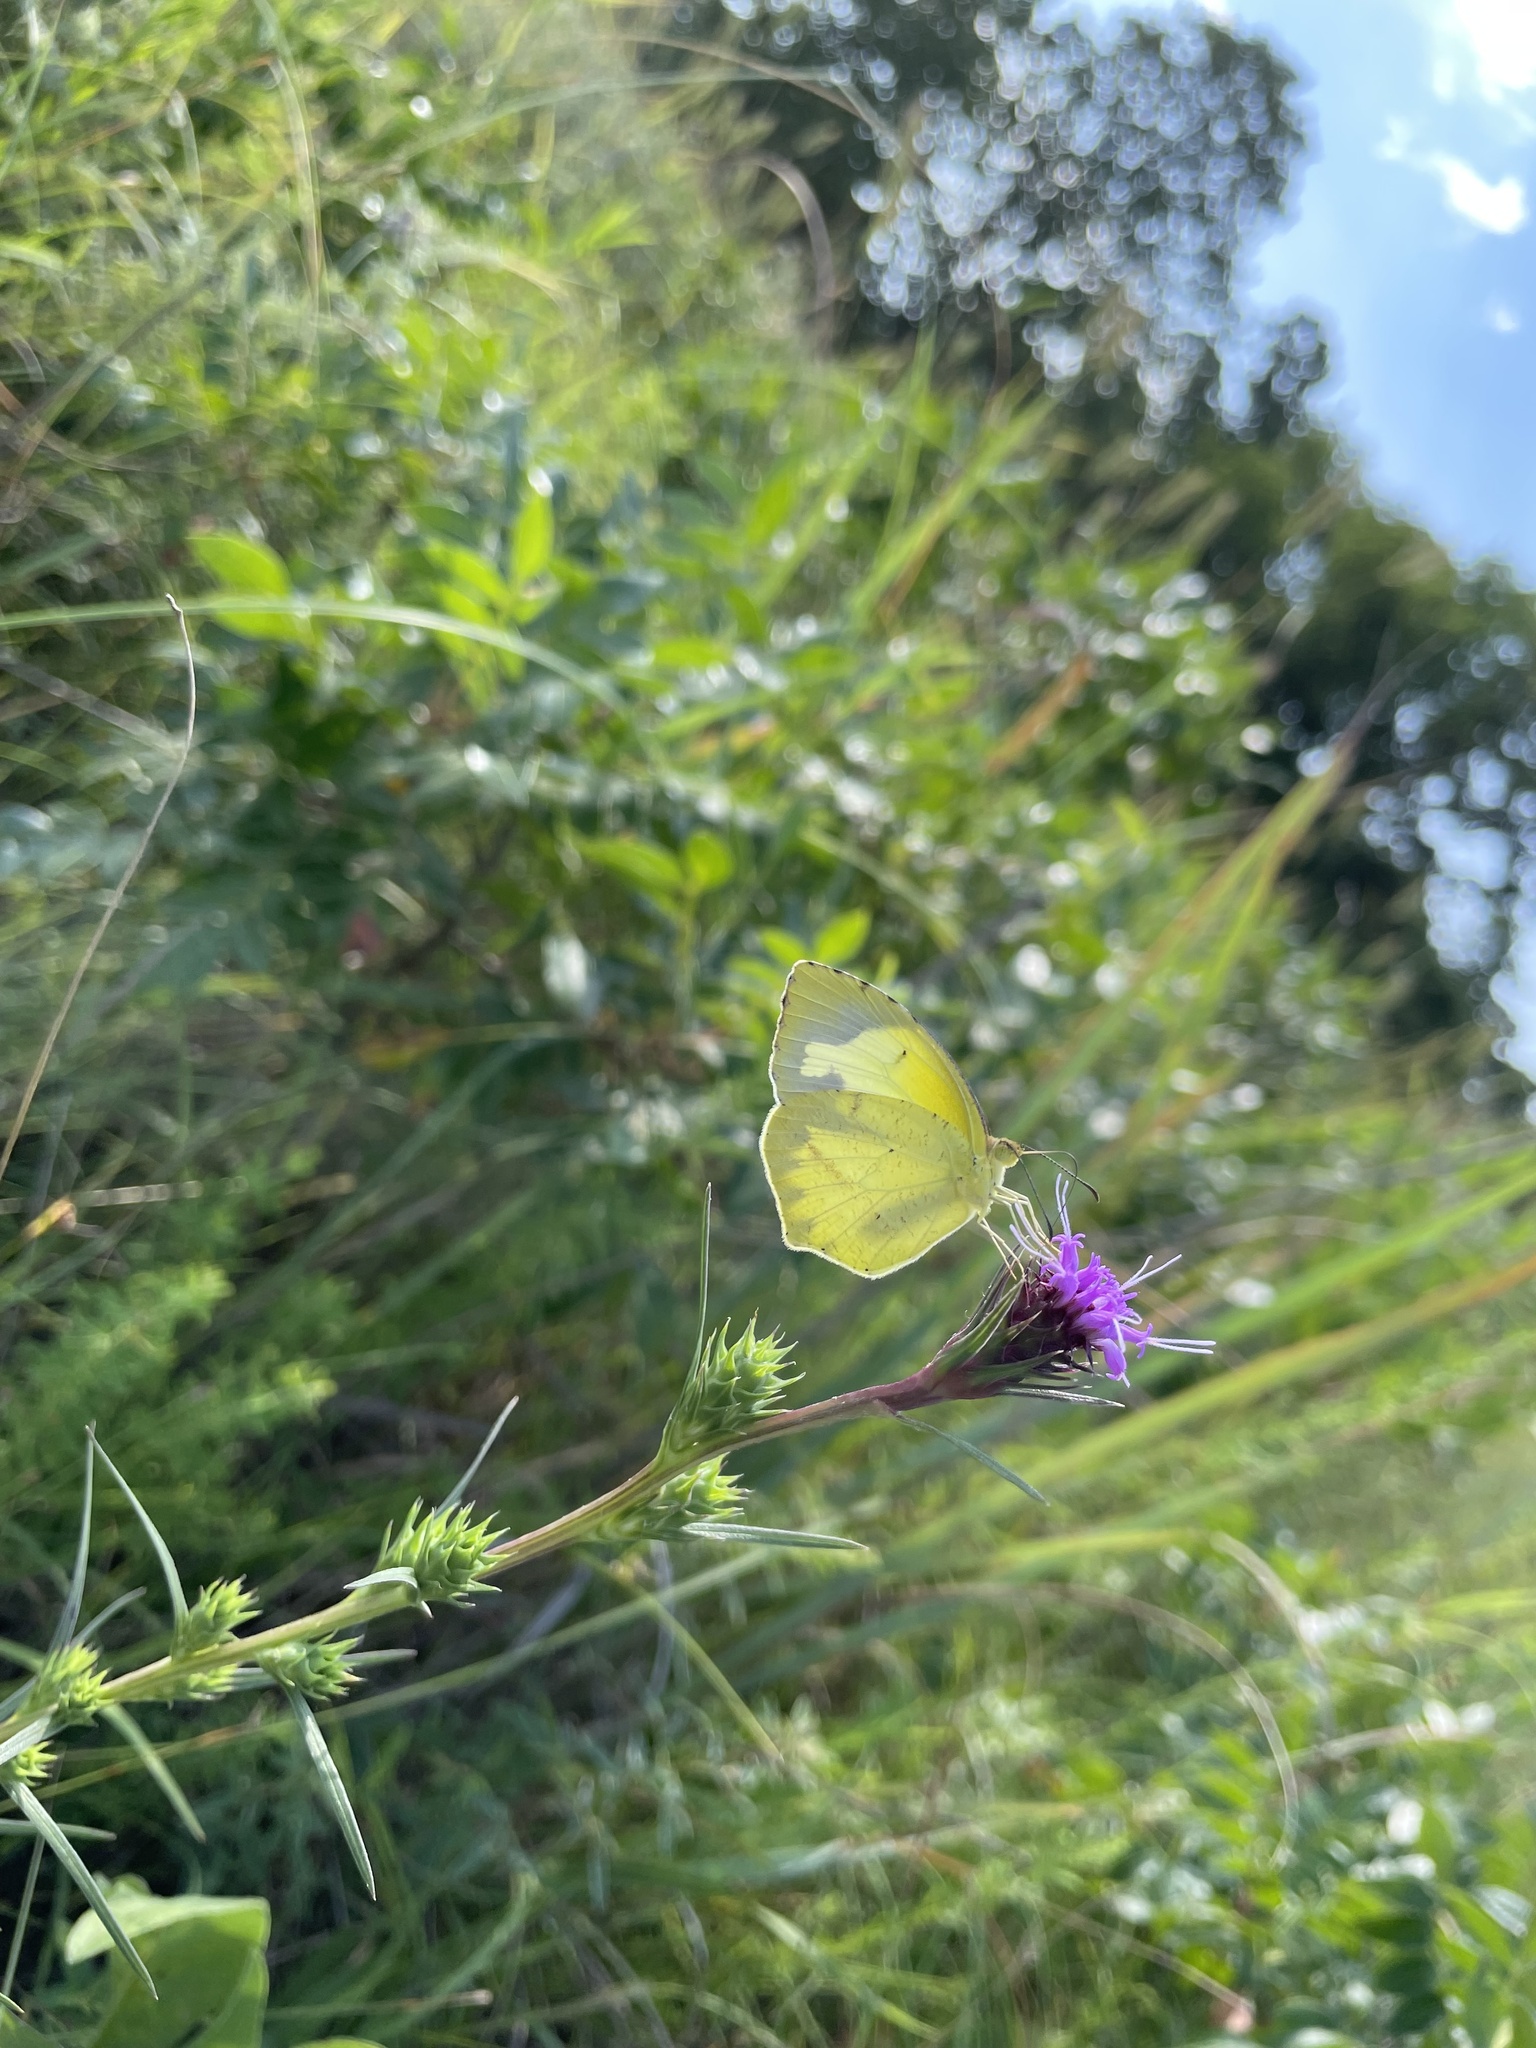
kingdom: Animalia
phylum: Arthropoda
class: Insecta
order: Lepidoptera
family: Pieridae
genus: Abaeis
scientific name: Abaeis mexicana
